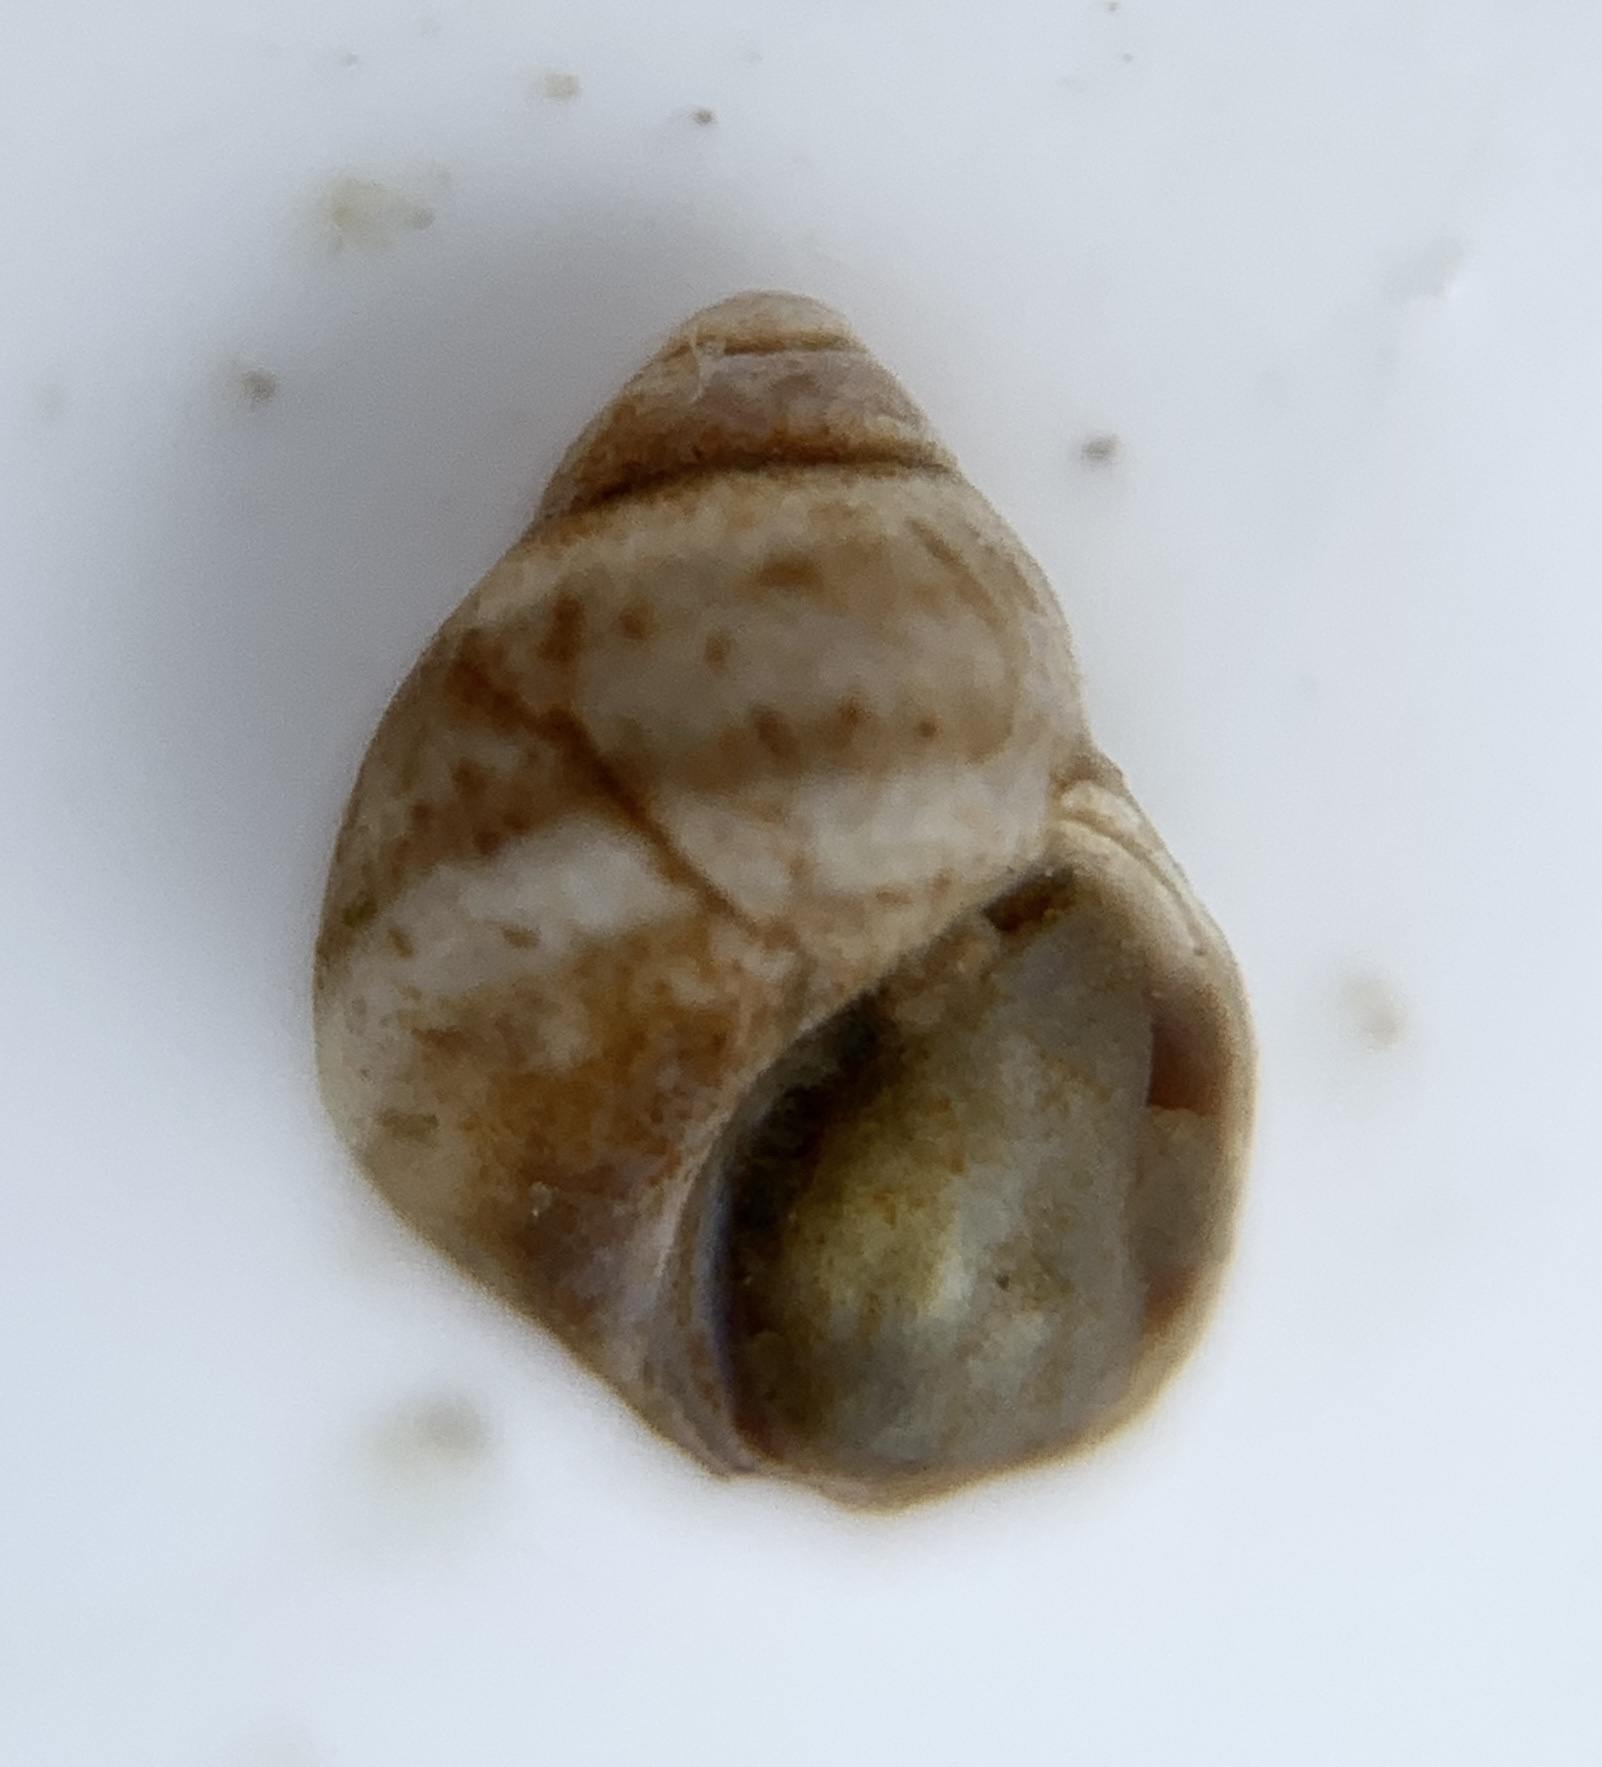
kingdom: Animalia
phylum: Mollusca
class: Gastropoda
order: Littorinimorpha
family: Littorinidae
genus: Lacuna
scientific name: Lacuna vincta
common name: Banded chink shell
